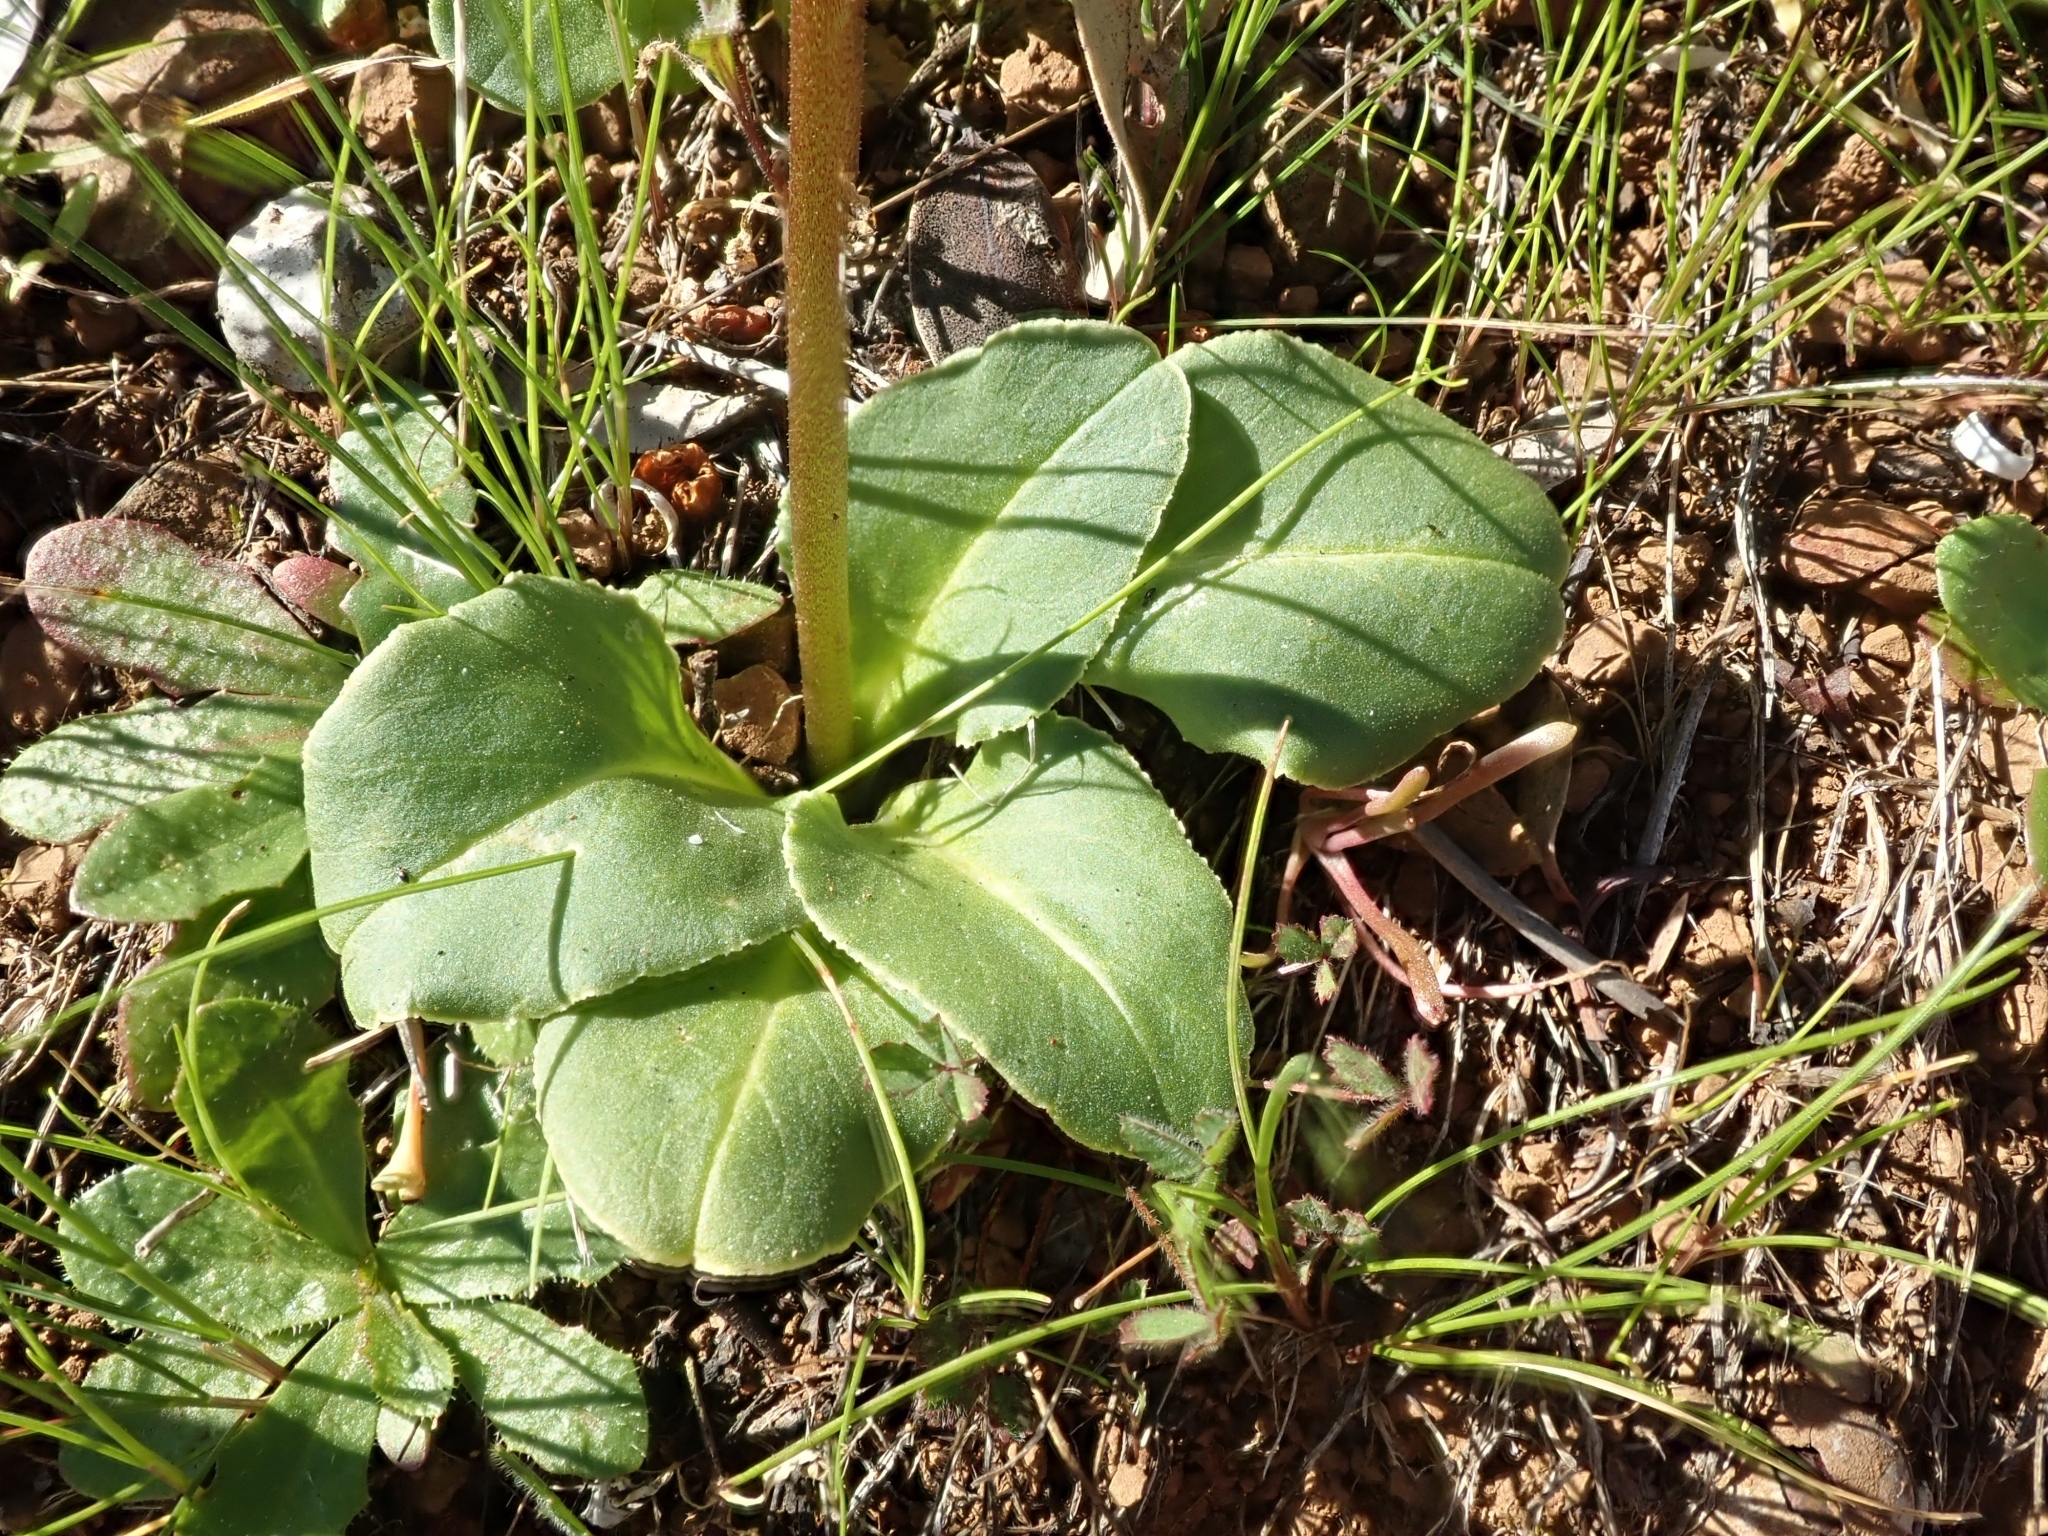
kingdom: Plantae
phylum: Tracheophyta
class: Magnoliopsida
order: Ericales
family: Primulaceae
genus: Dodecatheon
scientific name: Dodecatheon hendersonii
